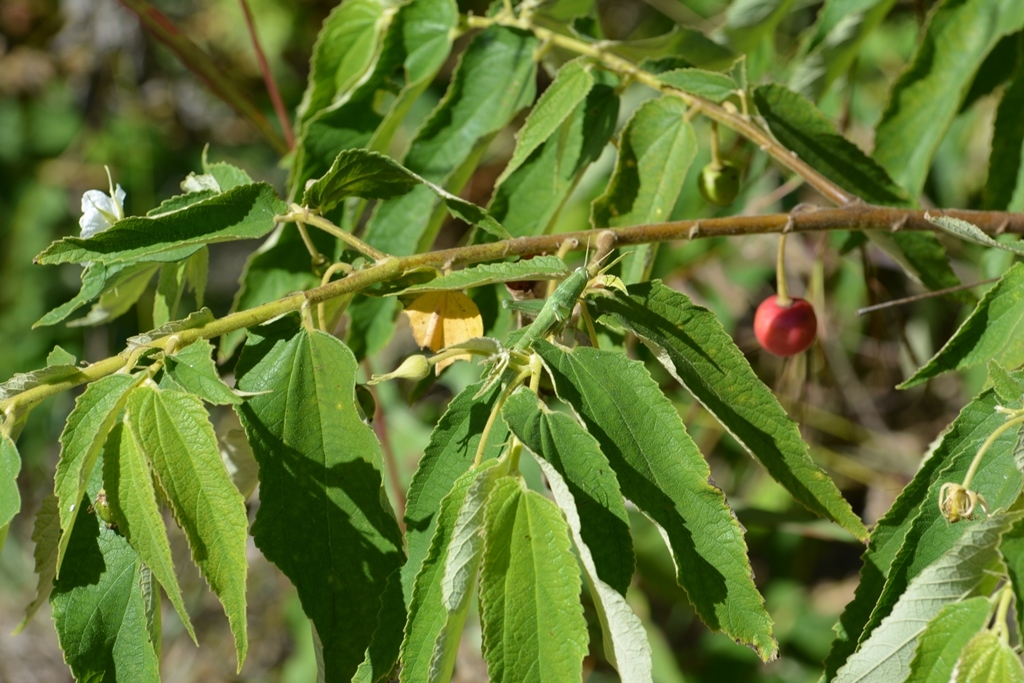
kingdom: Plantae
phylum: Tracheophyta
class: Magnoliopsida
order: Malvales
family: Muntingiaceae
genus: Muntingia
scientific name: Muntingia calabura
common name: Strawberrytree
